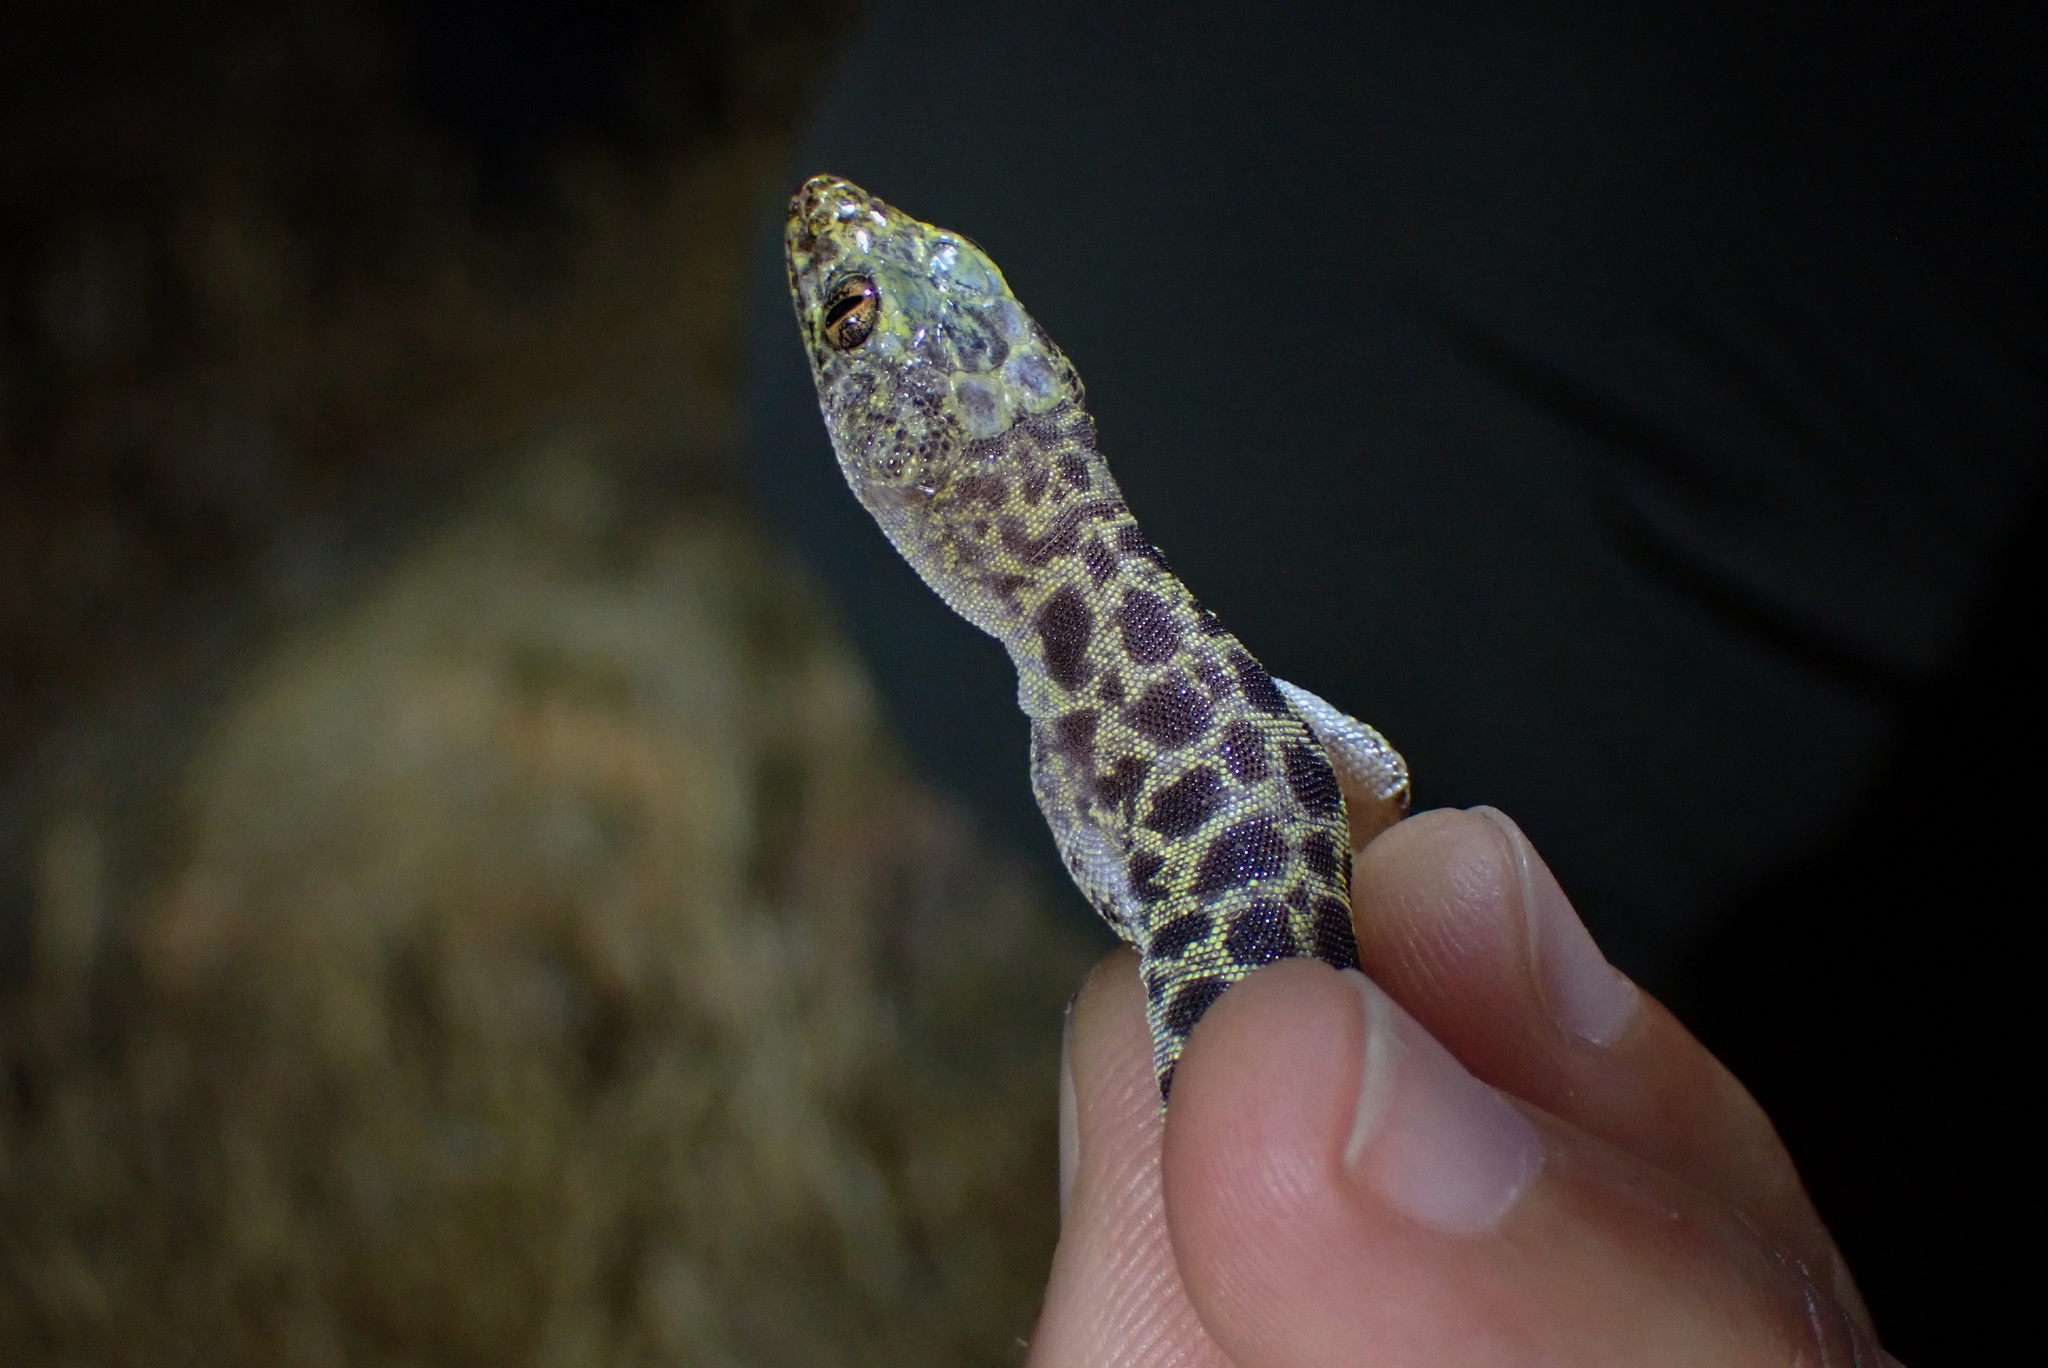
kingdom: Animalia
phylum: Chordata
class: Squamata
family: Xantusiidae
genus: Xantusia
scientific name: Xantusia henshawi
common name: Granite night lizard
